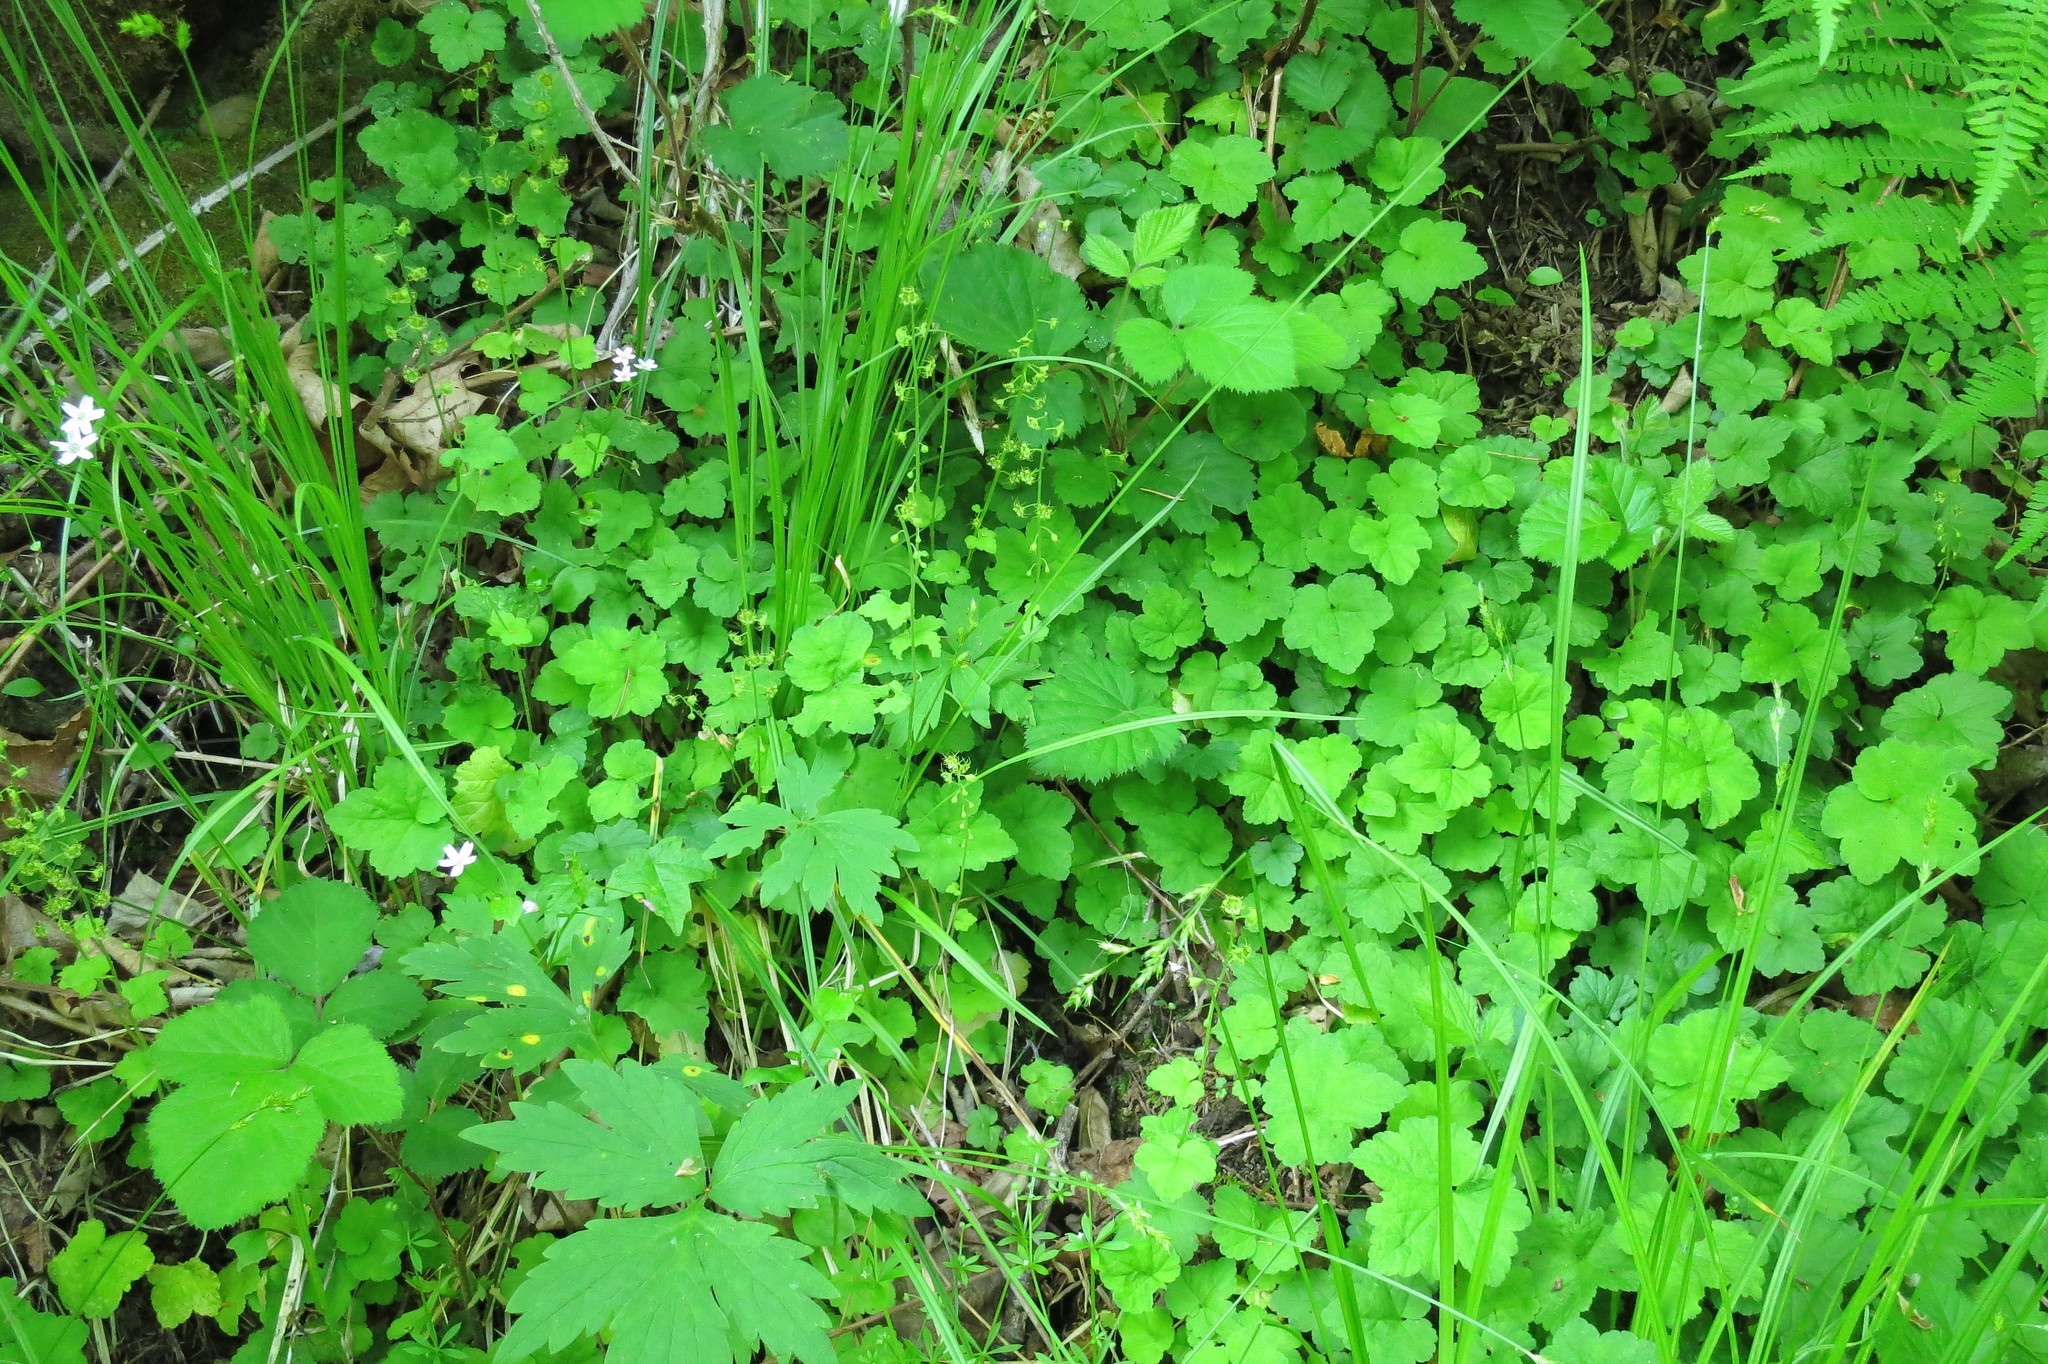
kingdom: Plantae
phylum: Tracheophyta
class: Magnoliopsida
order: Saxifragales
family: Saxifragaceae
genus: Mitellastra
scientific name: Mitellastra caulescens
